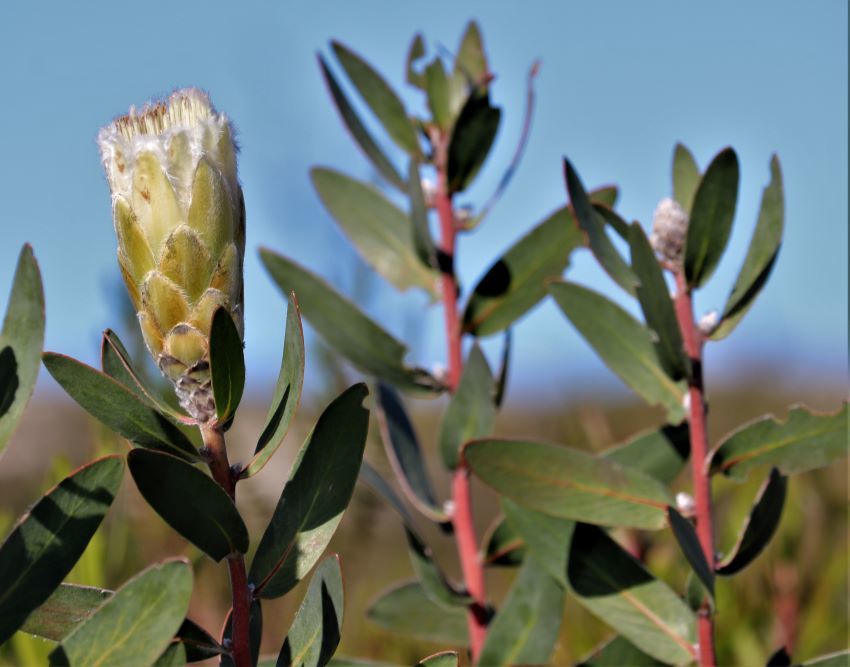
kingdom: Plantae
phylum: Tracheophyta
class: Magnoliopsida
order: Proteales
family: Proteaceae
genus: Protea
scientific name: Protea mundii
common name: Forest sugarbush
